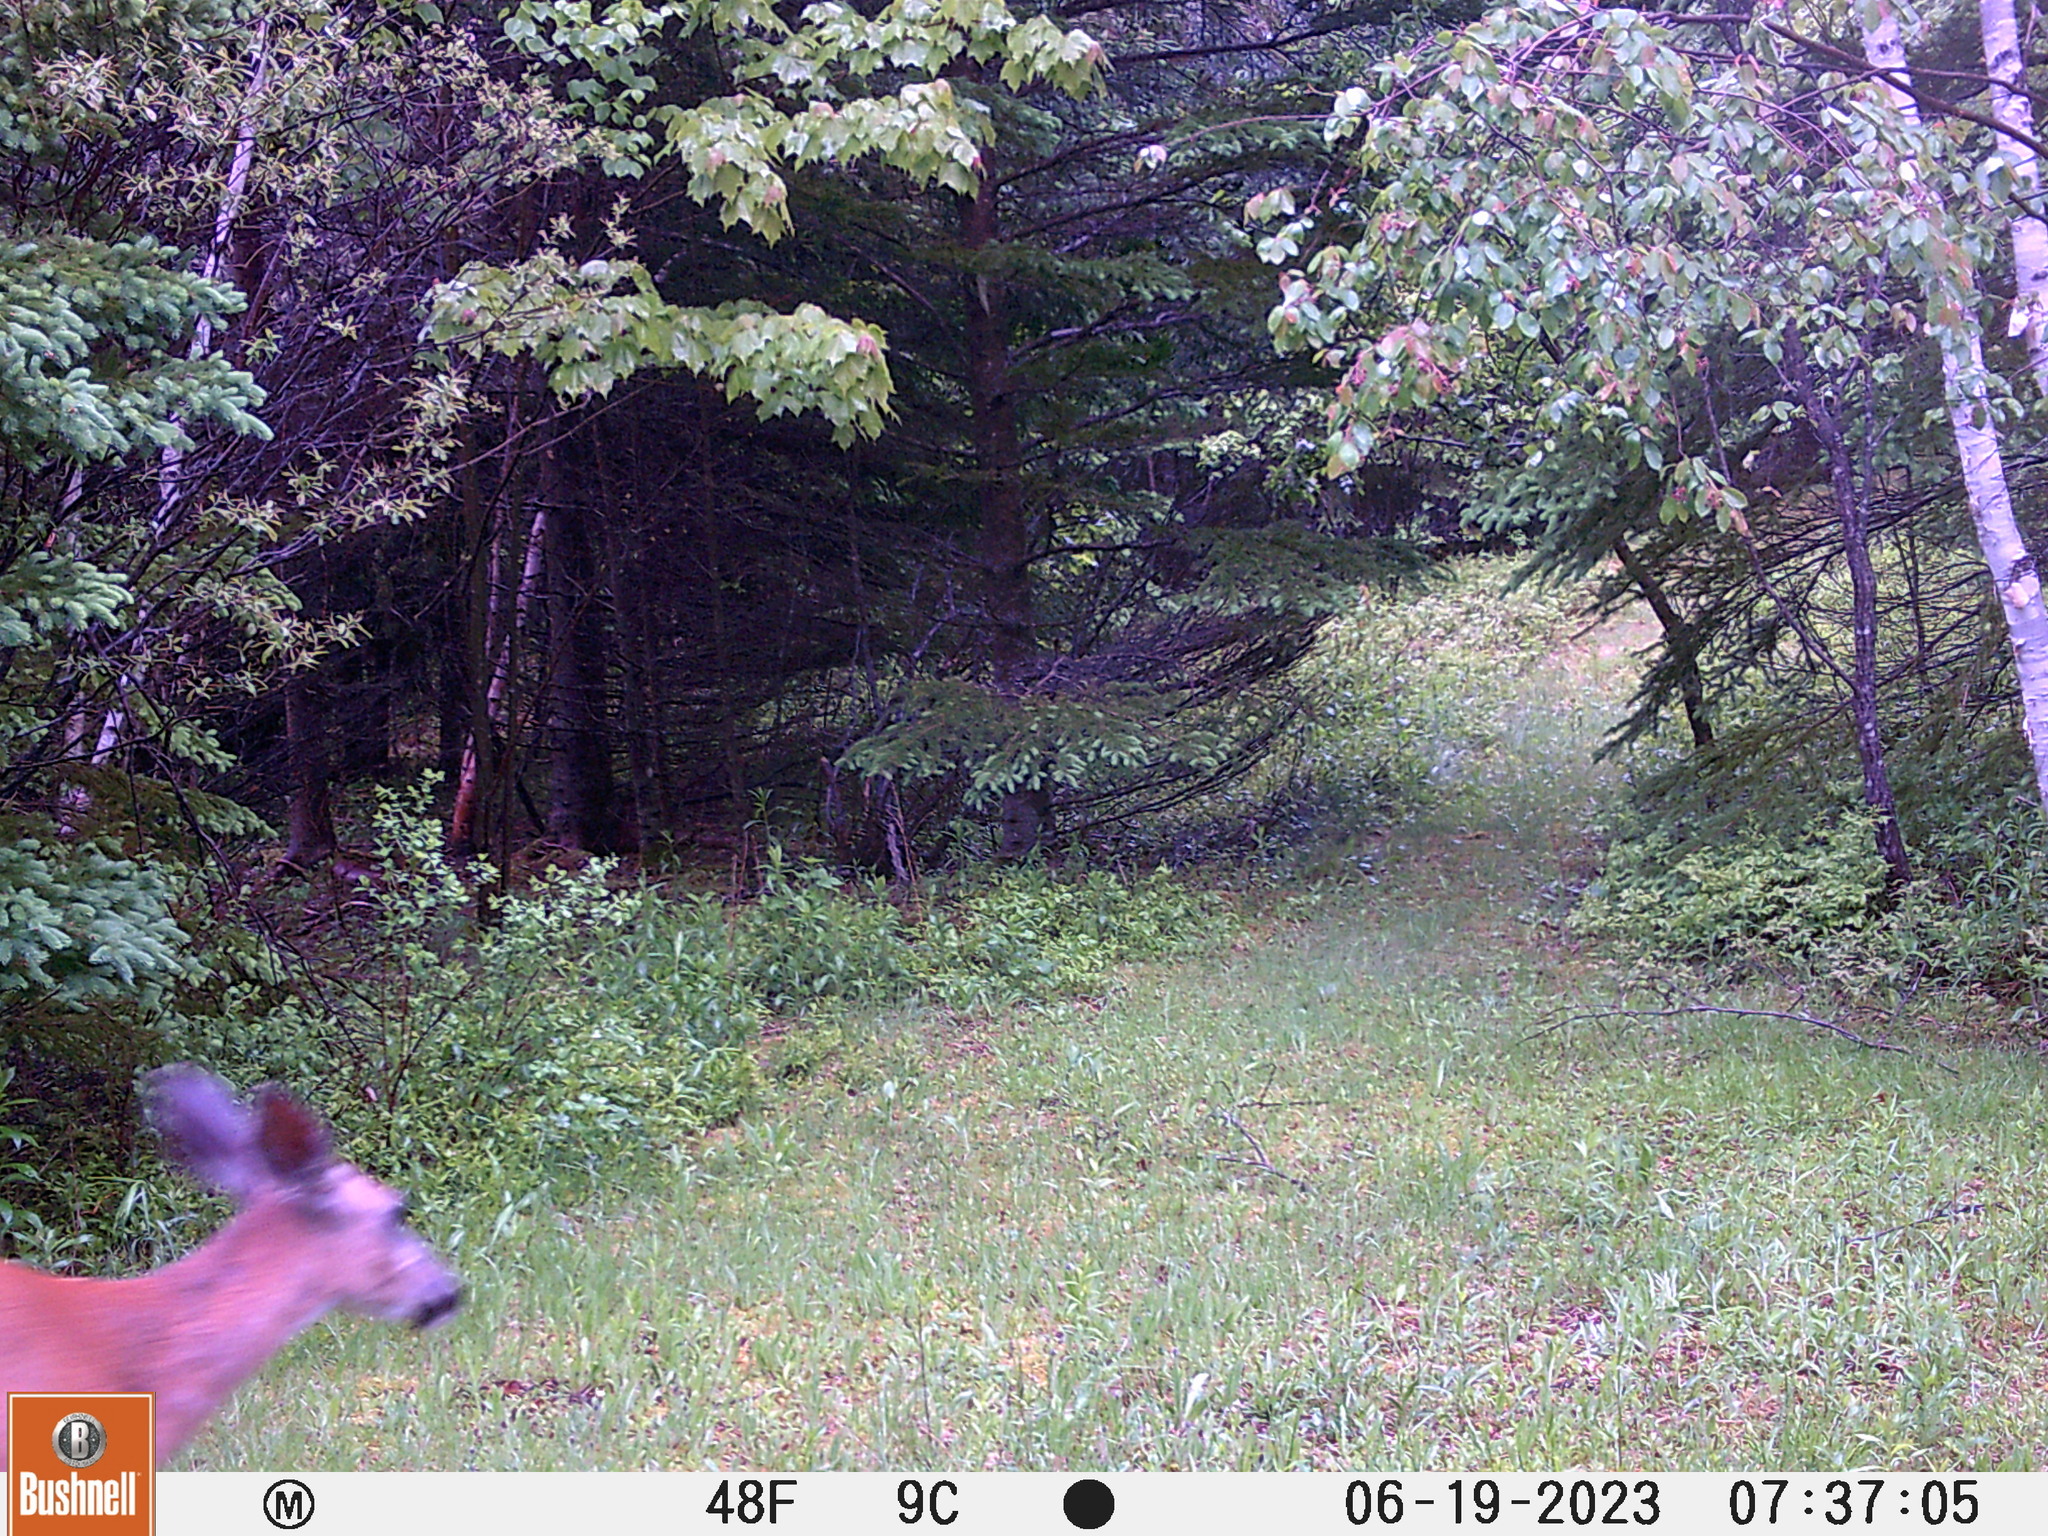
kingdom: Animalia
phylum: Chordata
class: Mammalia
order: Artiodactyla
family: Cervidae
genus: Odocoileus
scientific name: Odocoileus virginianus
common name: White-tailed deer
